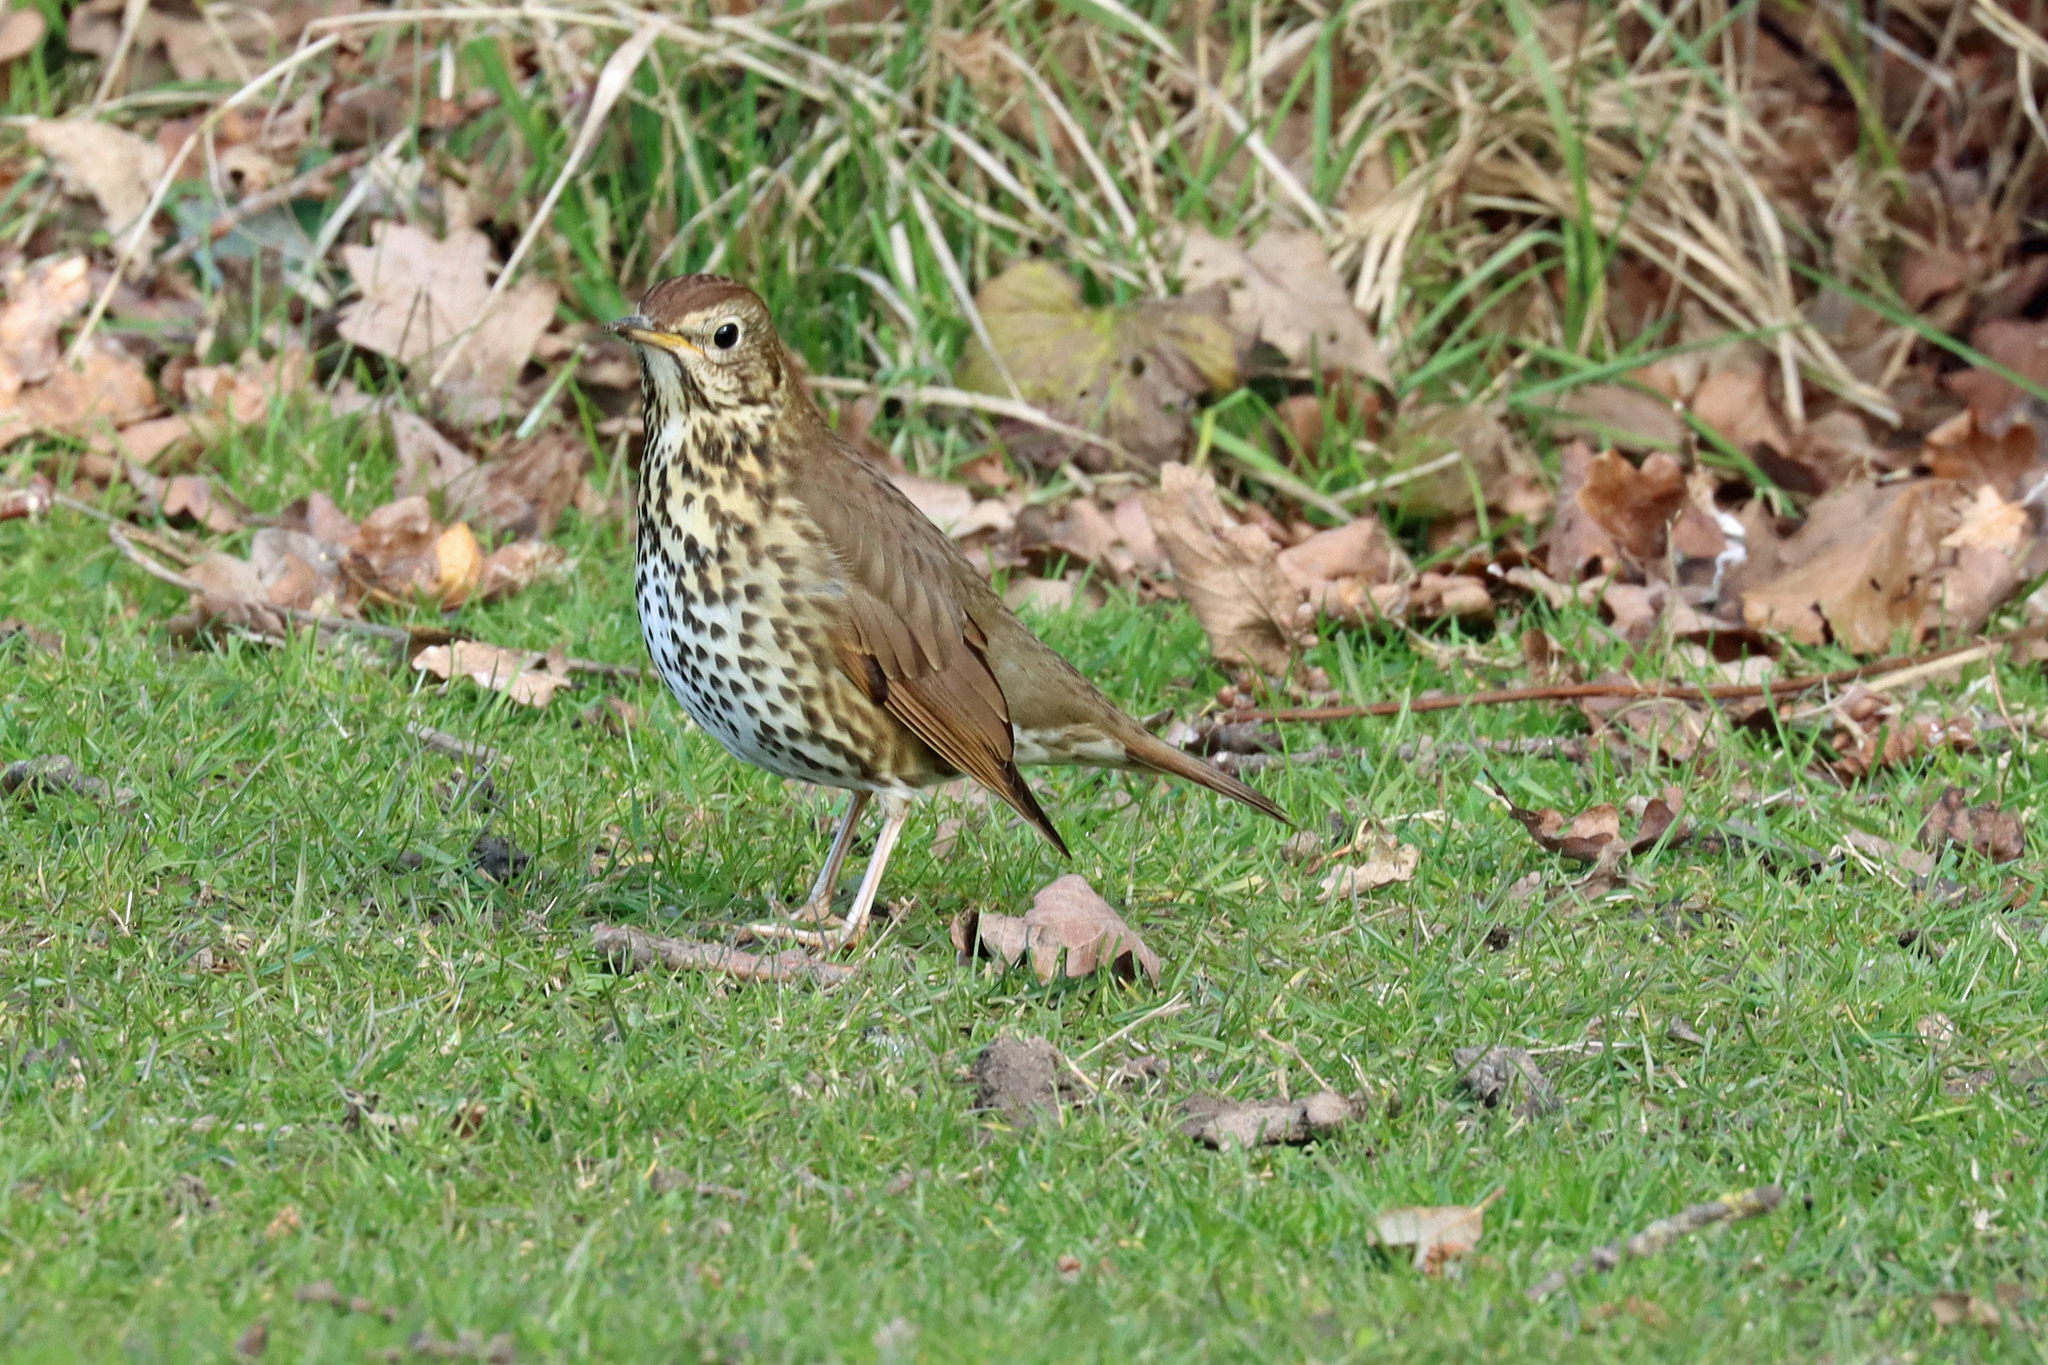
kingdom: Animalia
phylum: Chordata
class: Aves
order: Passeriformes
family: Turdidae
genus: Turdus
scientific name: Turdus philomelos
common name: Song thrush
